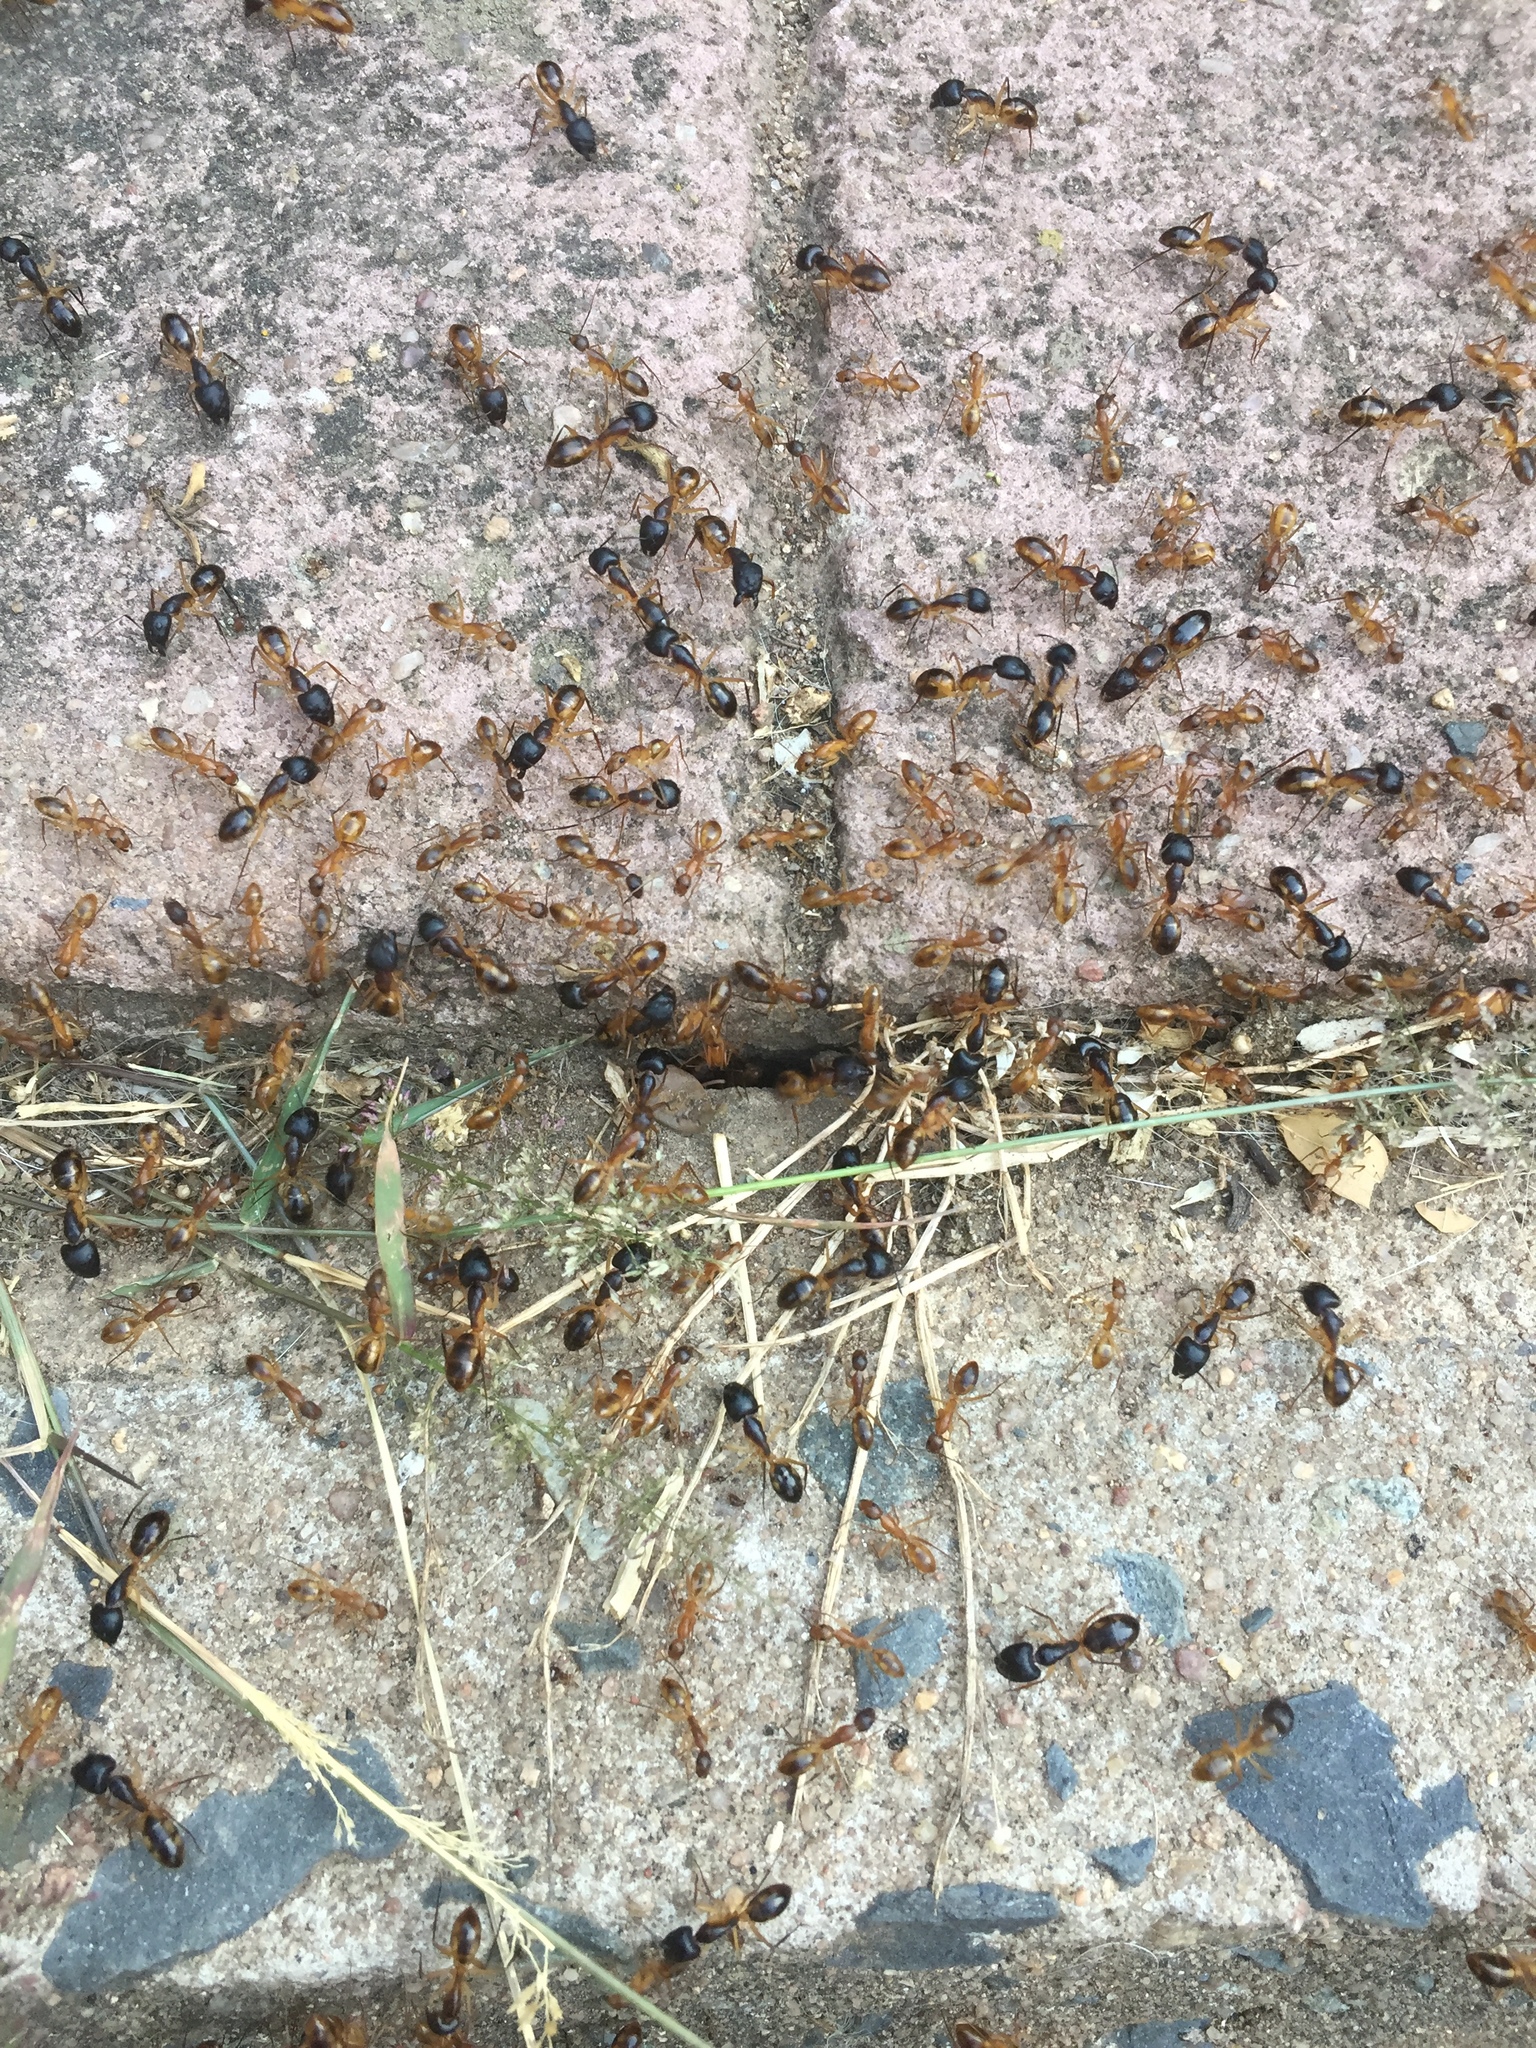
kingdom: Animalia
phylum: Arthropoda
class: Insecta
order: Hymenoptera
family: Formicidae
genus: Camponotus
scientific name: Camponotus maculatus
